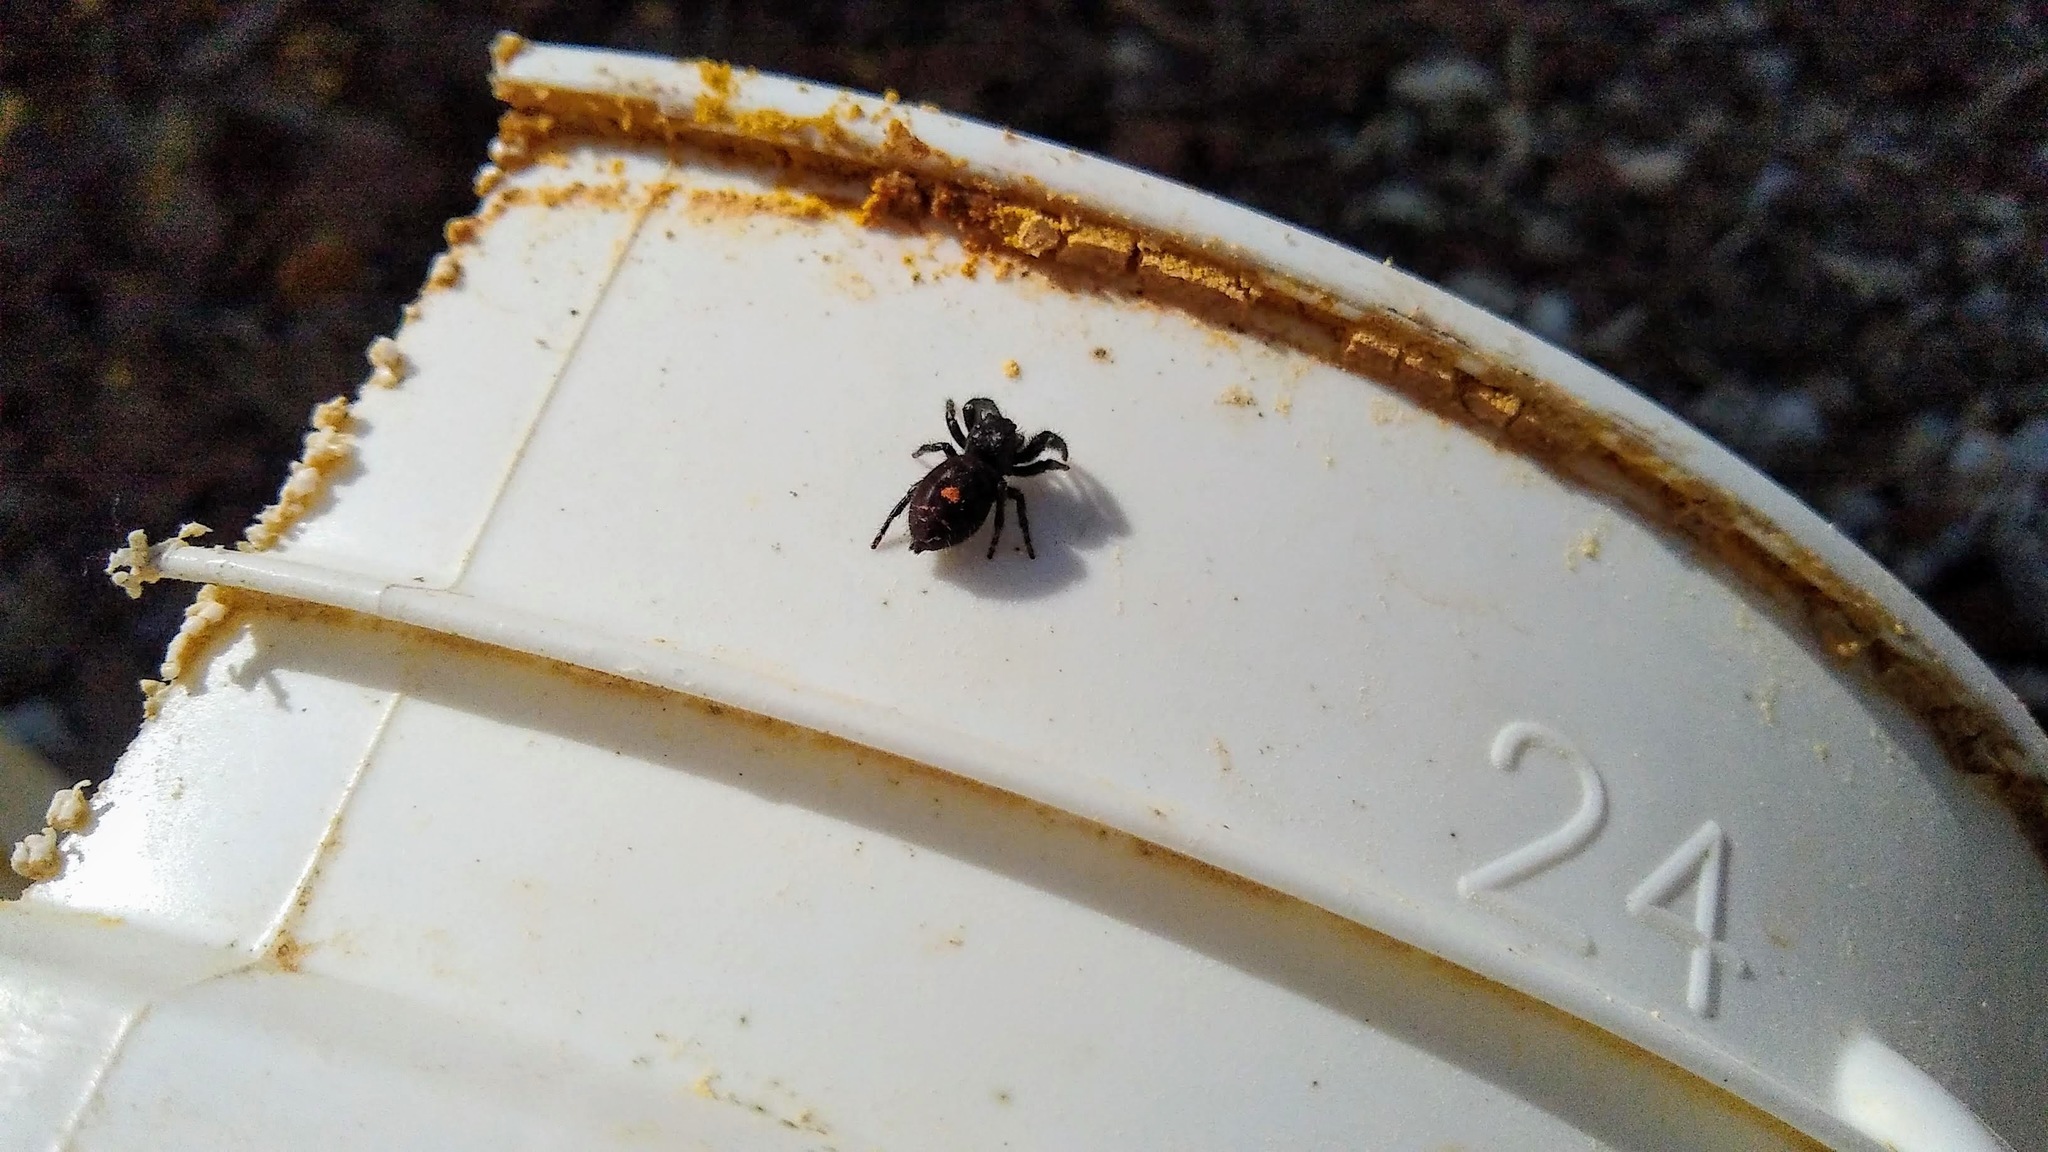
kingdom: Animalia
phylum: Arthropoda
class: Arachnida
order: Araneae
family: Salticidae
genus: Phidippus
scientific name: Phidippus audax
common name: Bold jumper
